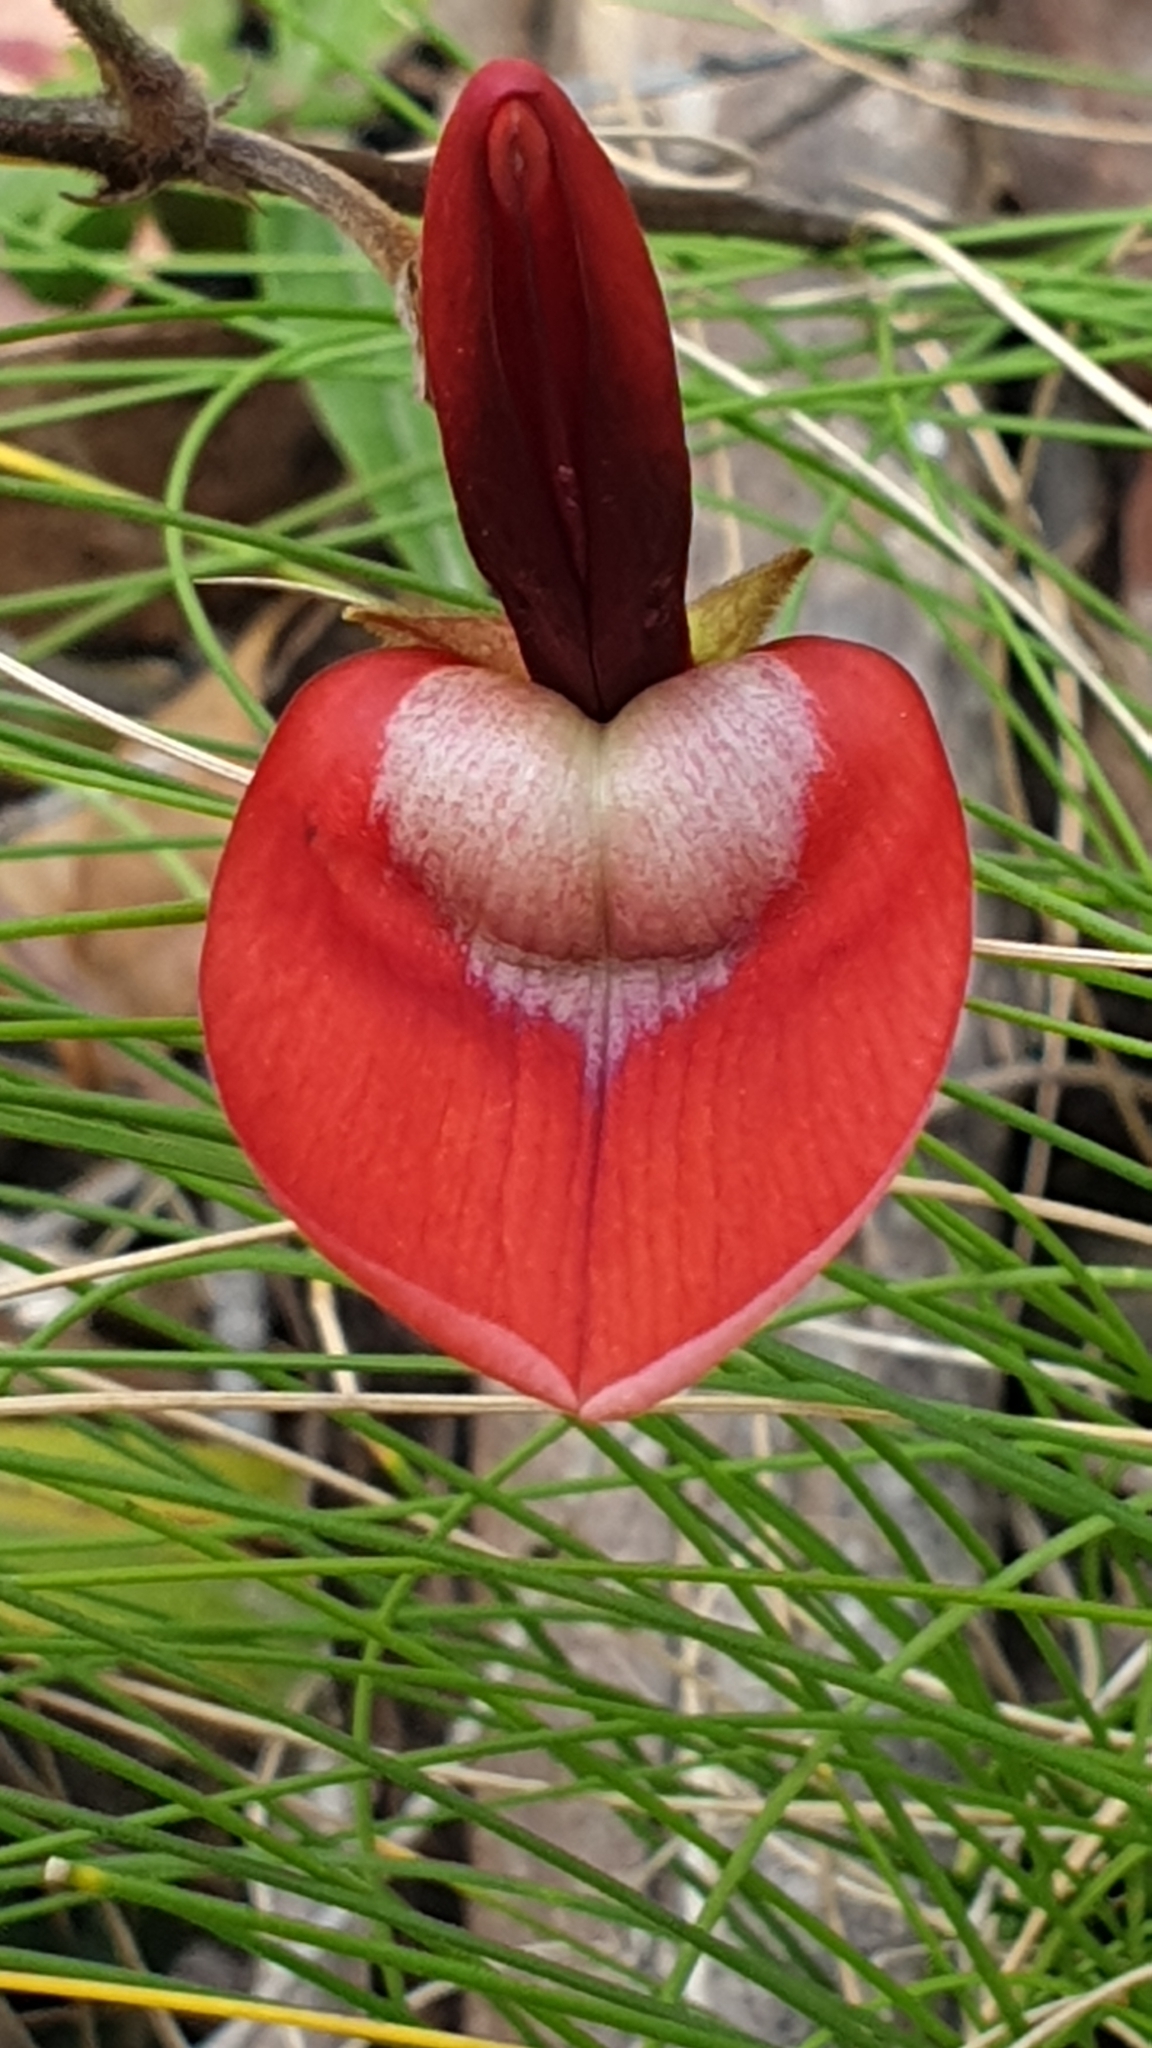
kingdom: Plantae
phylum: Tracheophyta
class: Magnoliopsida
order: Fabales
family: Fabaceae
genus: Kennedia
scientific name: Kennedia rubicunda
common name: Red kennedy-pea
